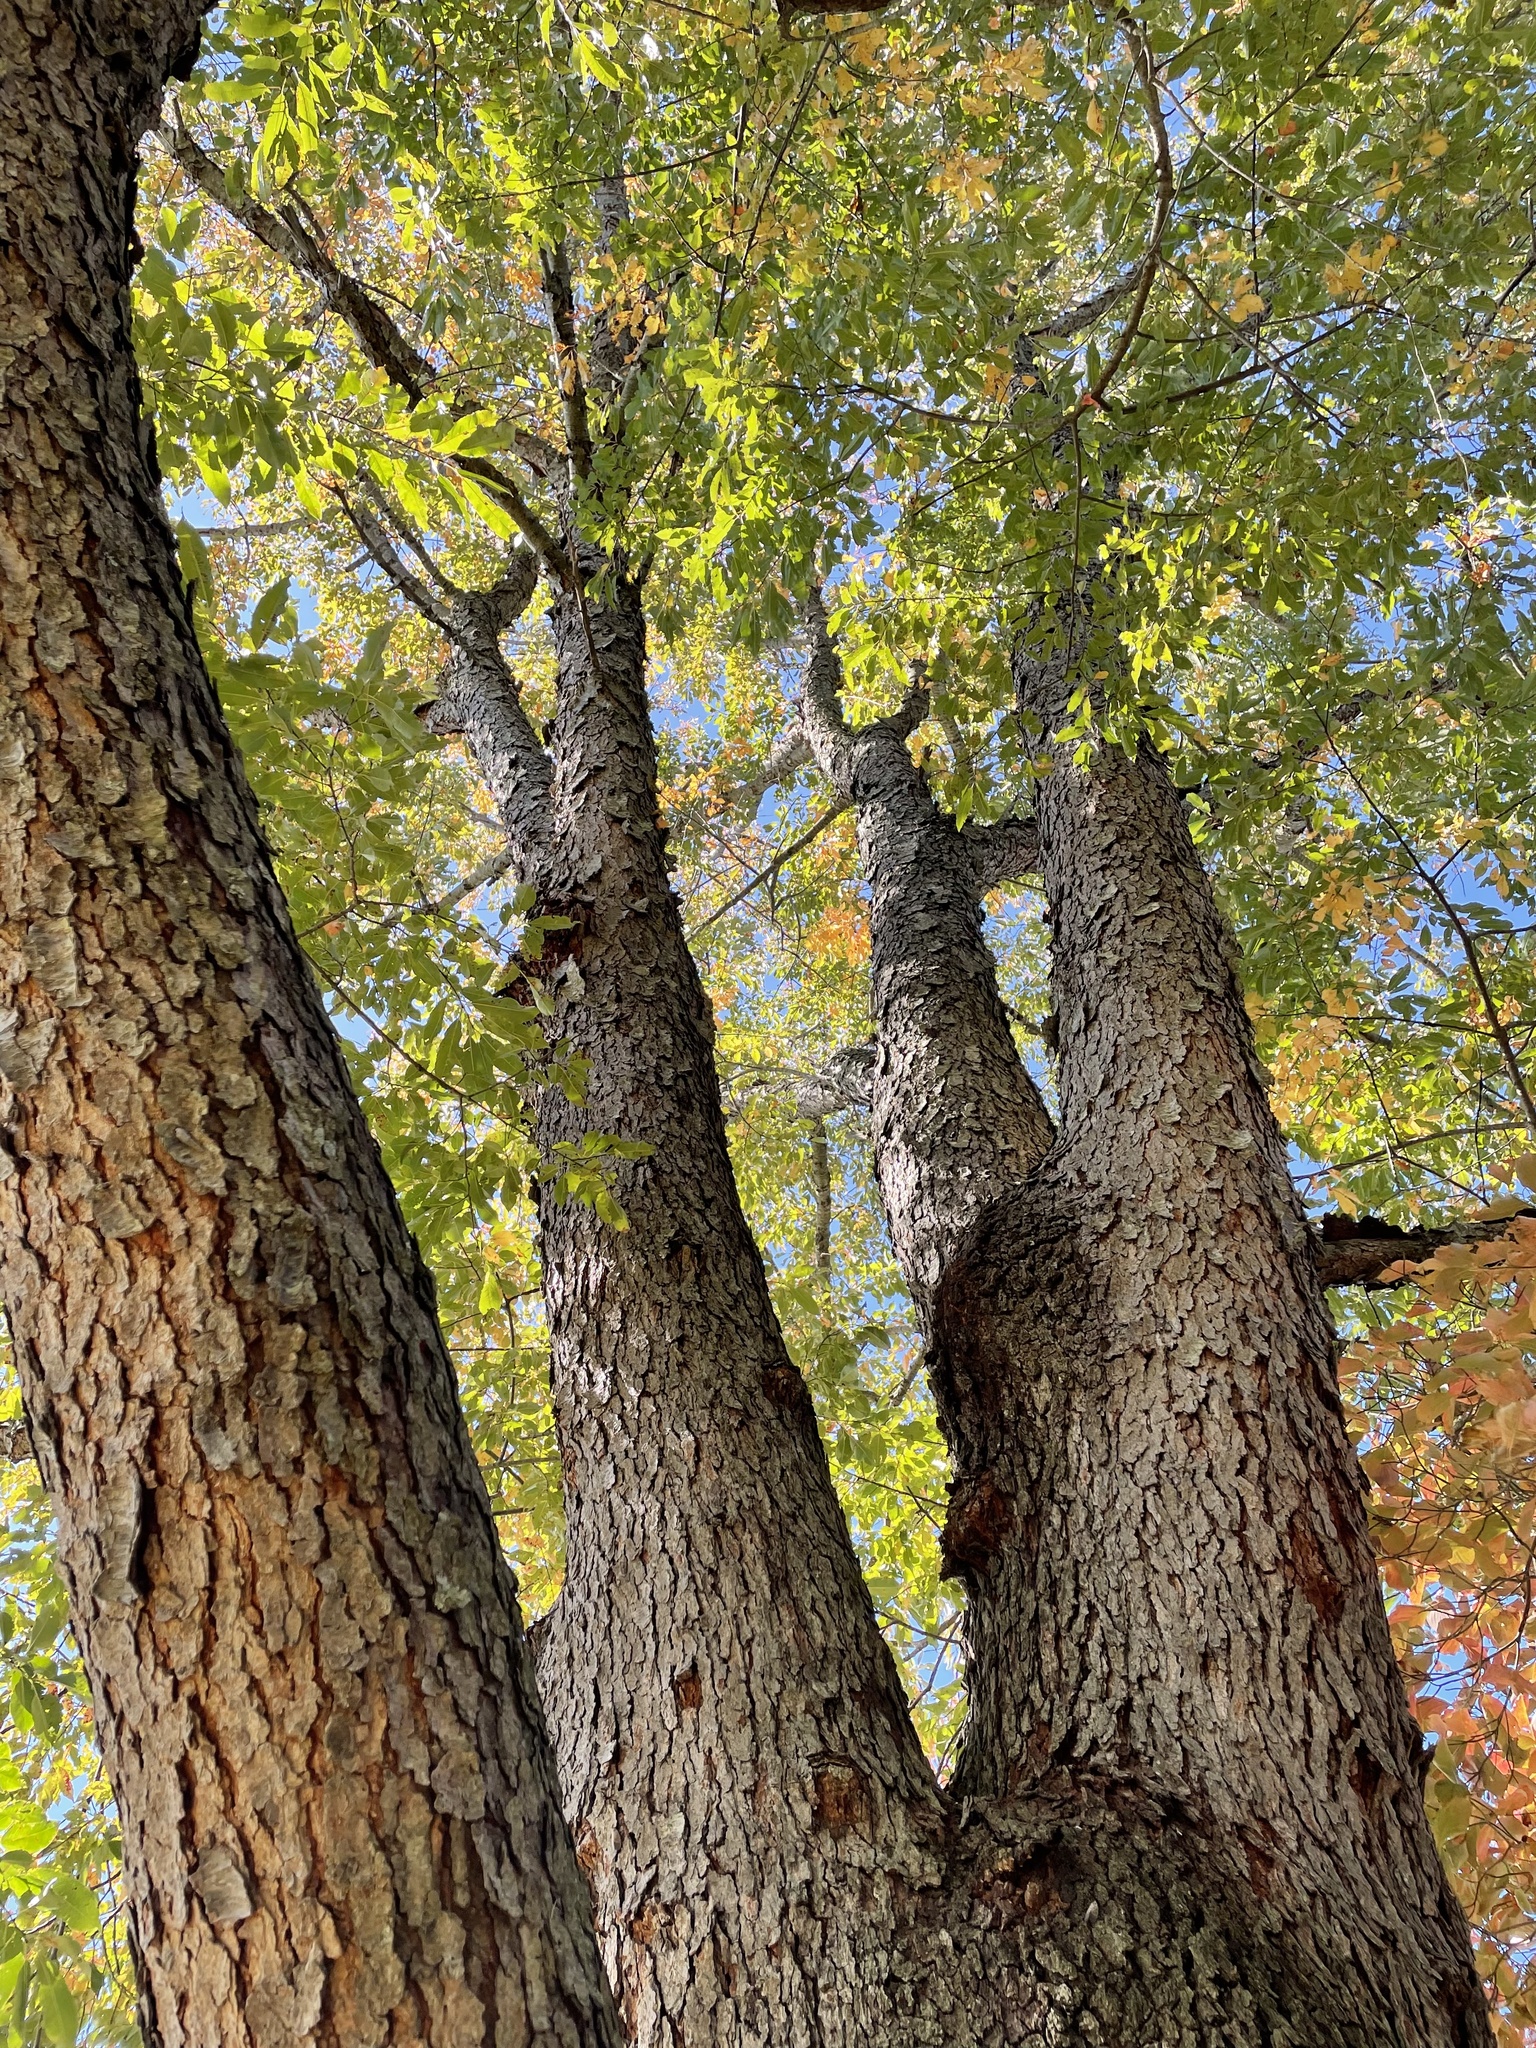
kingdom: Plantae
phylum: Tracheophyta
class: Magnoliopsida
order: Rosales
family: Rosaceae
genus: Prunus
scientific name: Prunus serotina
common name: Black cherry
